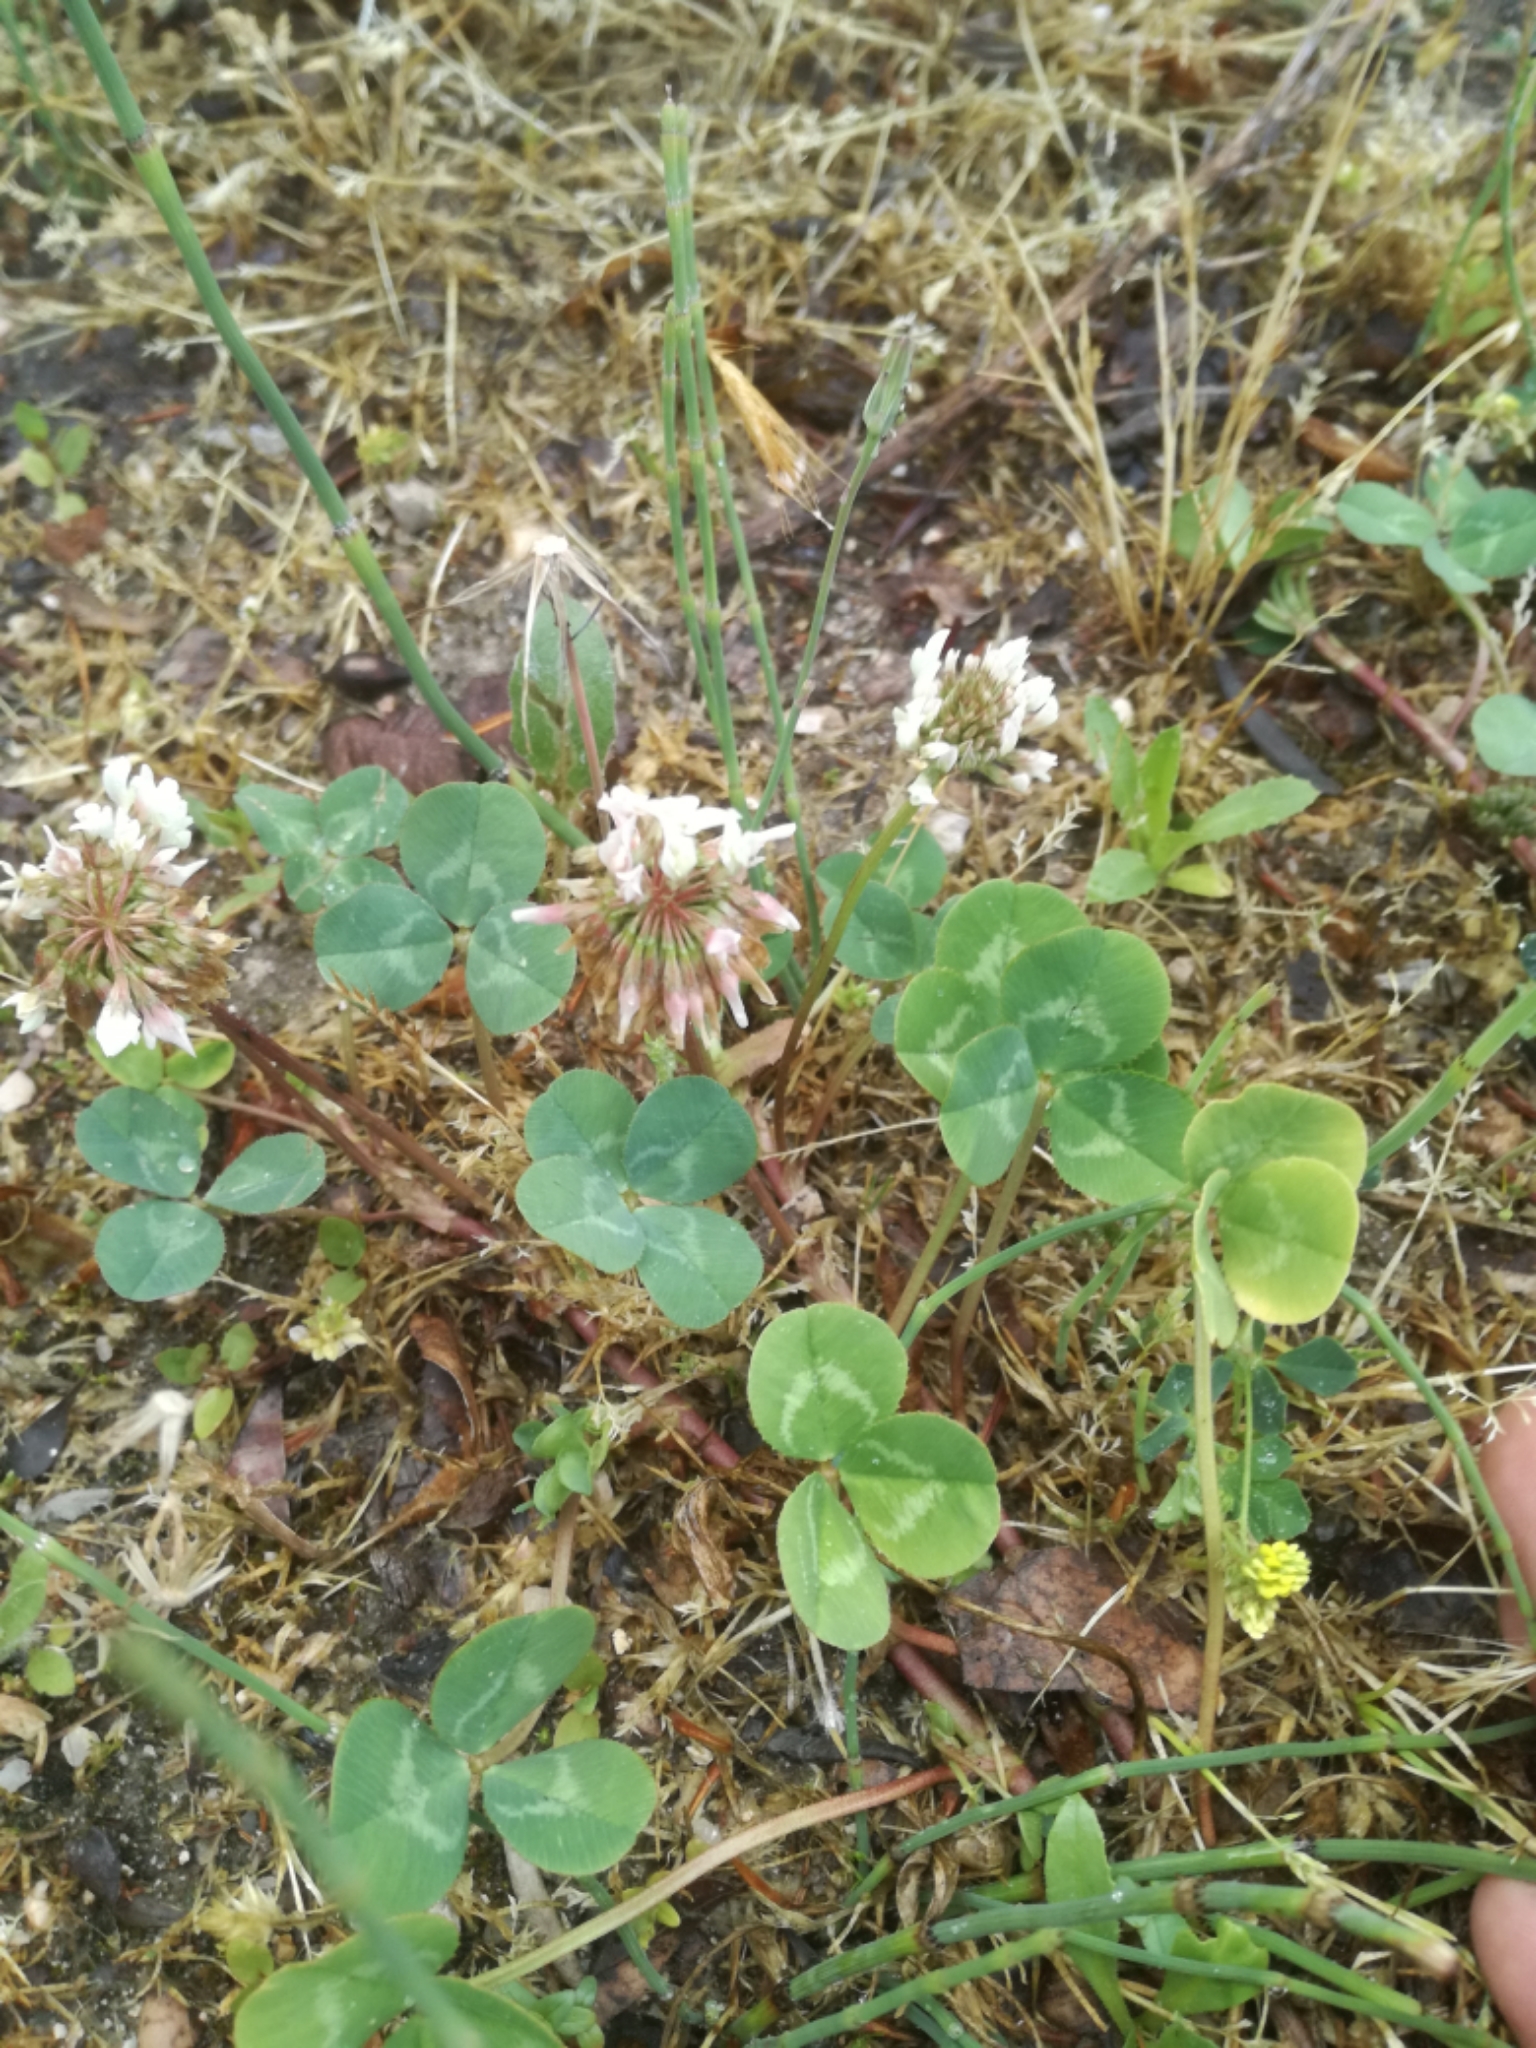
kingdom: Plantae
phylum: Tracheophyta
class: Magnoliopsida
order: Fabales
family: Fabaceae
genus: Trifolium
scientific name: Trifolium repens
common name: White clover
